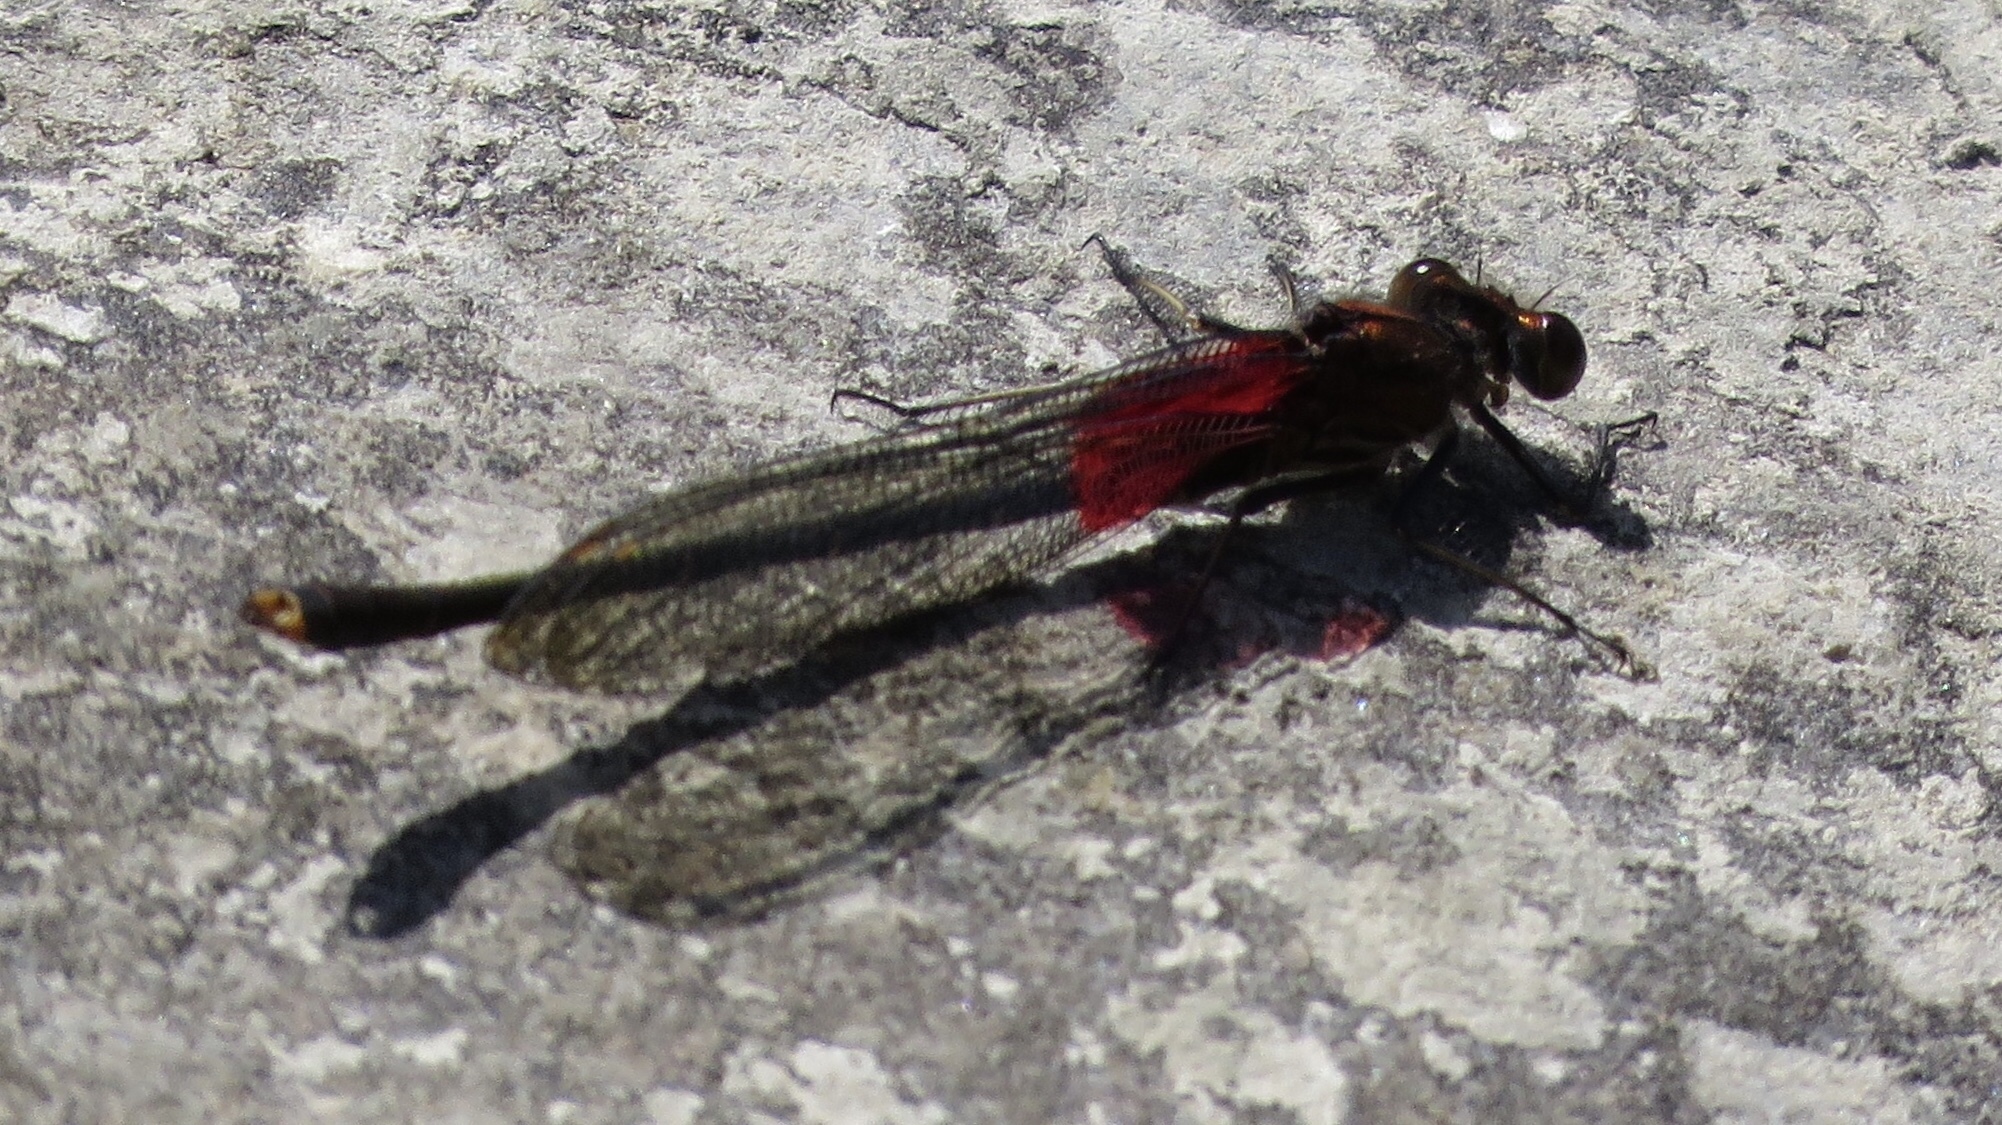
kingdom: Animalia
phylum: Arthropoda
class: Insecta
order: Odonata
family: Calopterygidae
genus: Hetaerina
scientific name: Hetaerina americana
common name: American rubyspot
